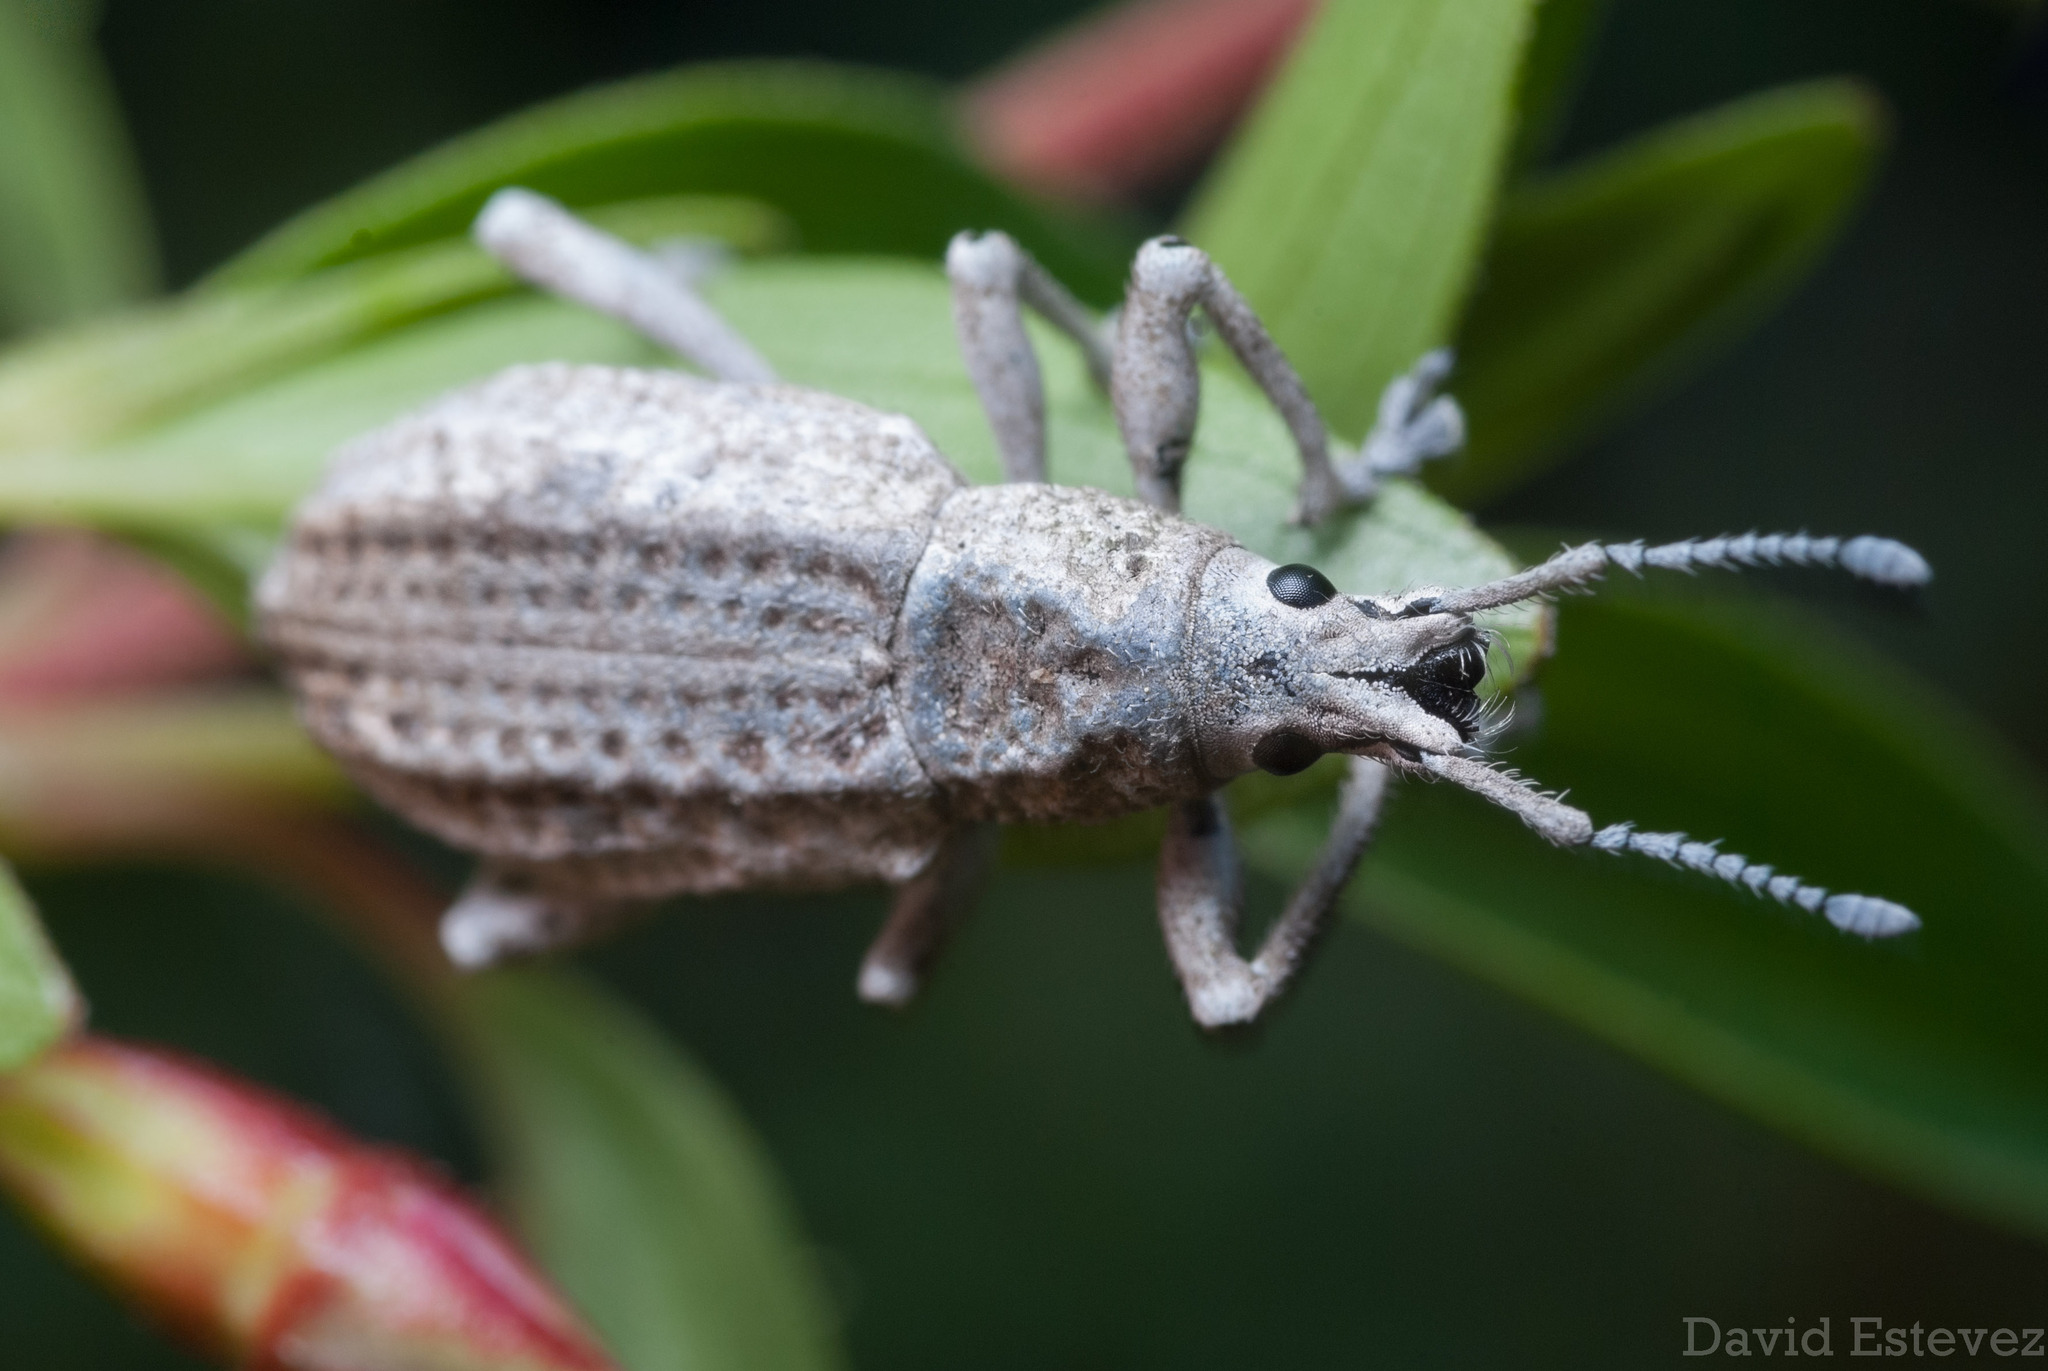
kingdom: Animalia
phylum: Arthropoda
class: Insecta
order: Coleoptera
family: Curculionidae
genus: Compsus
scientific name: Compsus canescens
